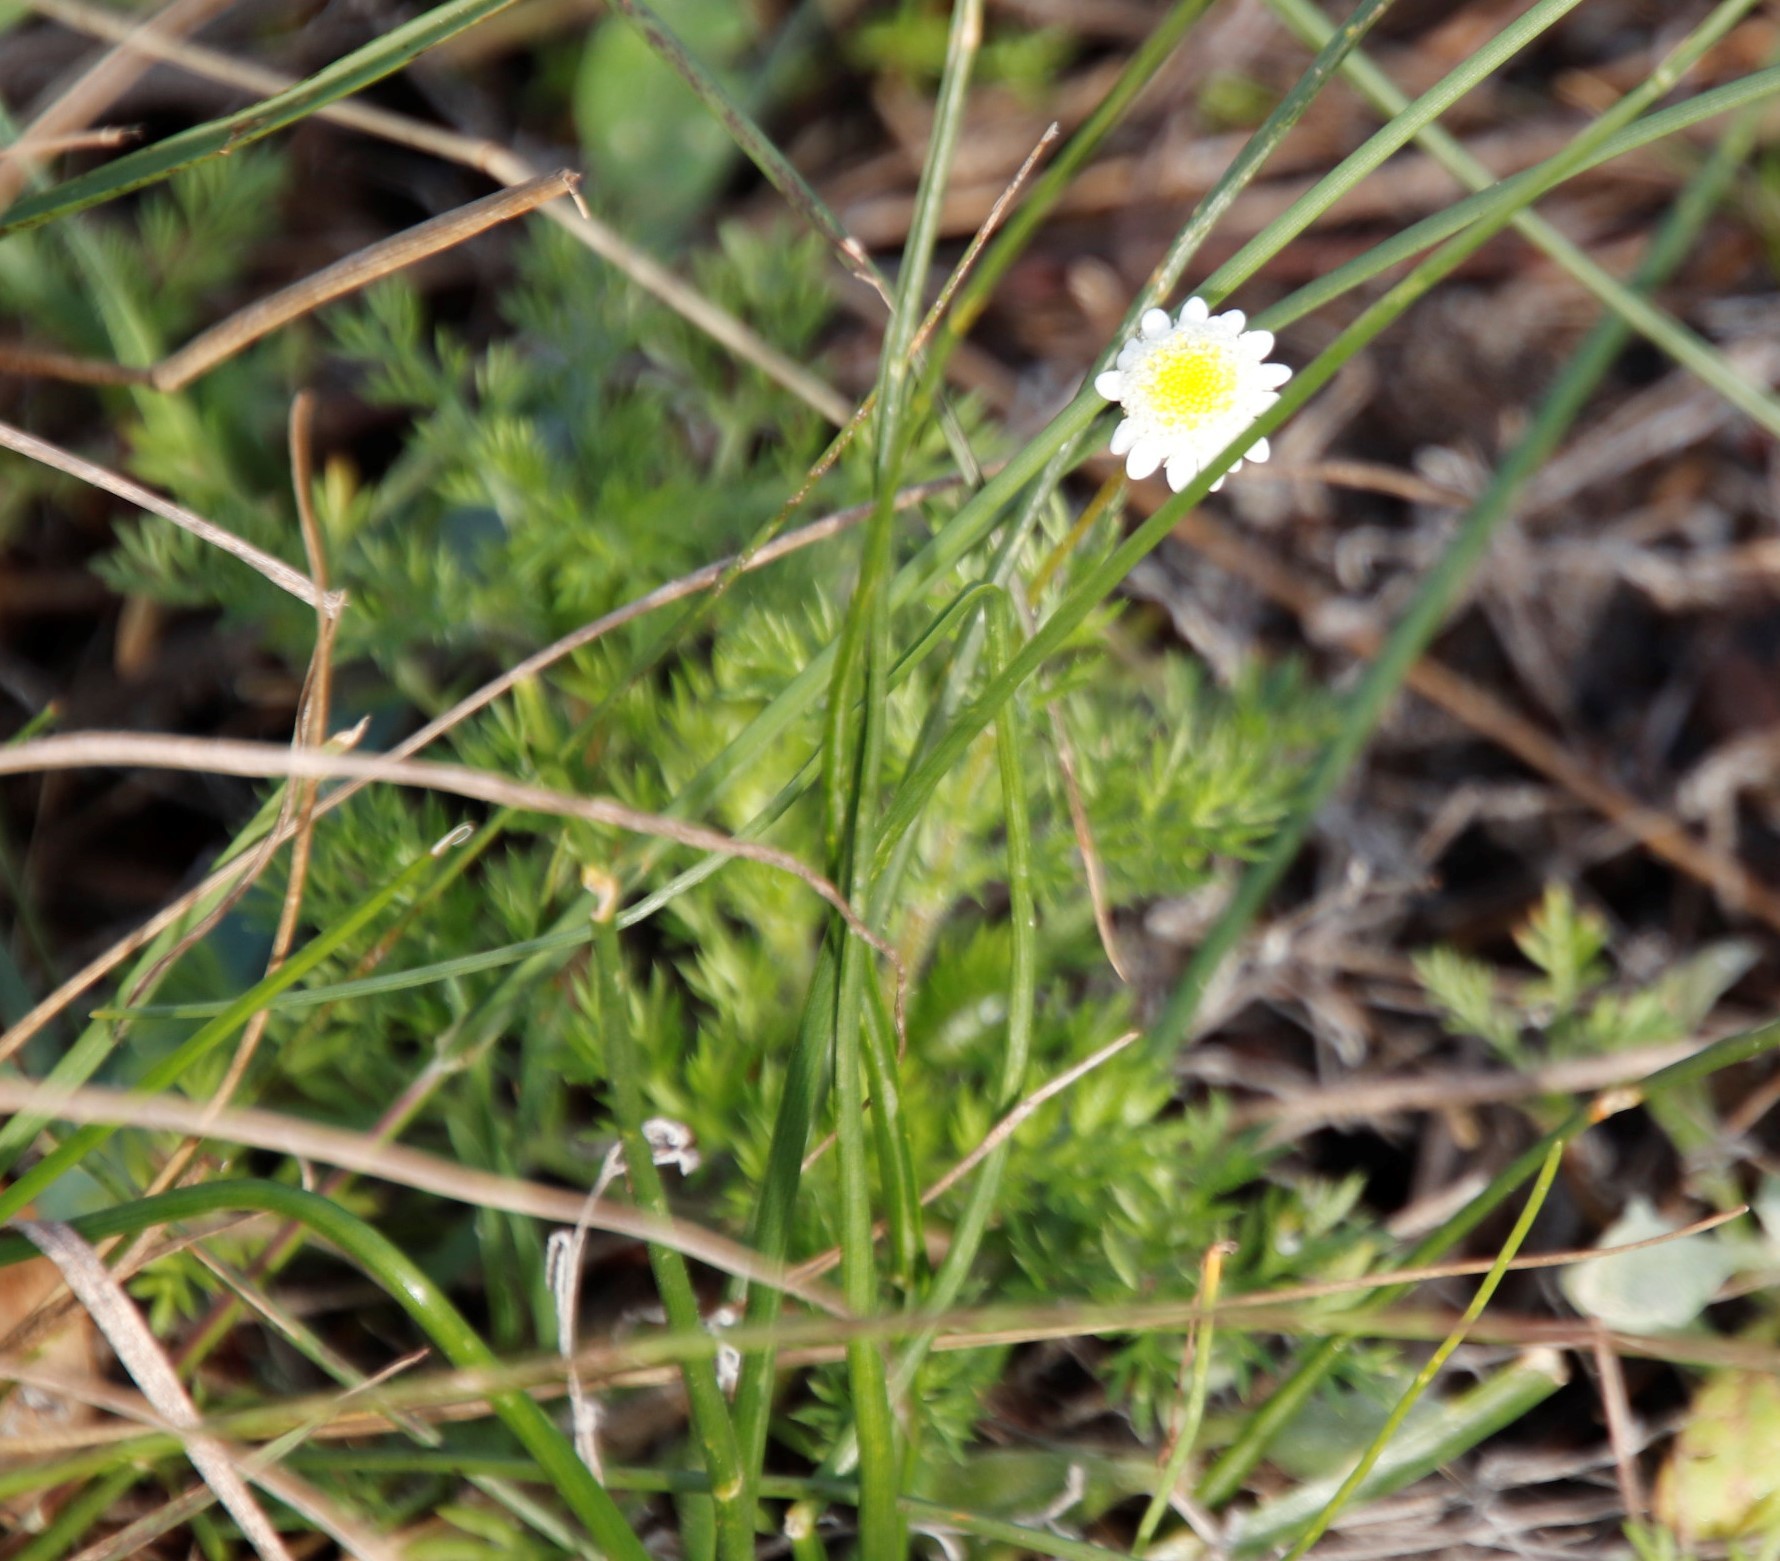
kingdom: Plantae
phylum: Tracheophyta
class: Magnoliopsida
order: Asterales
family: Asteraceae
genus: Cotula
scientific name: Cotula turbinata
